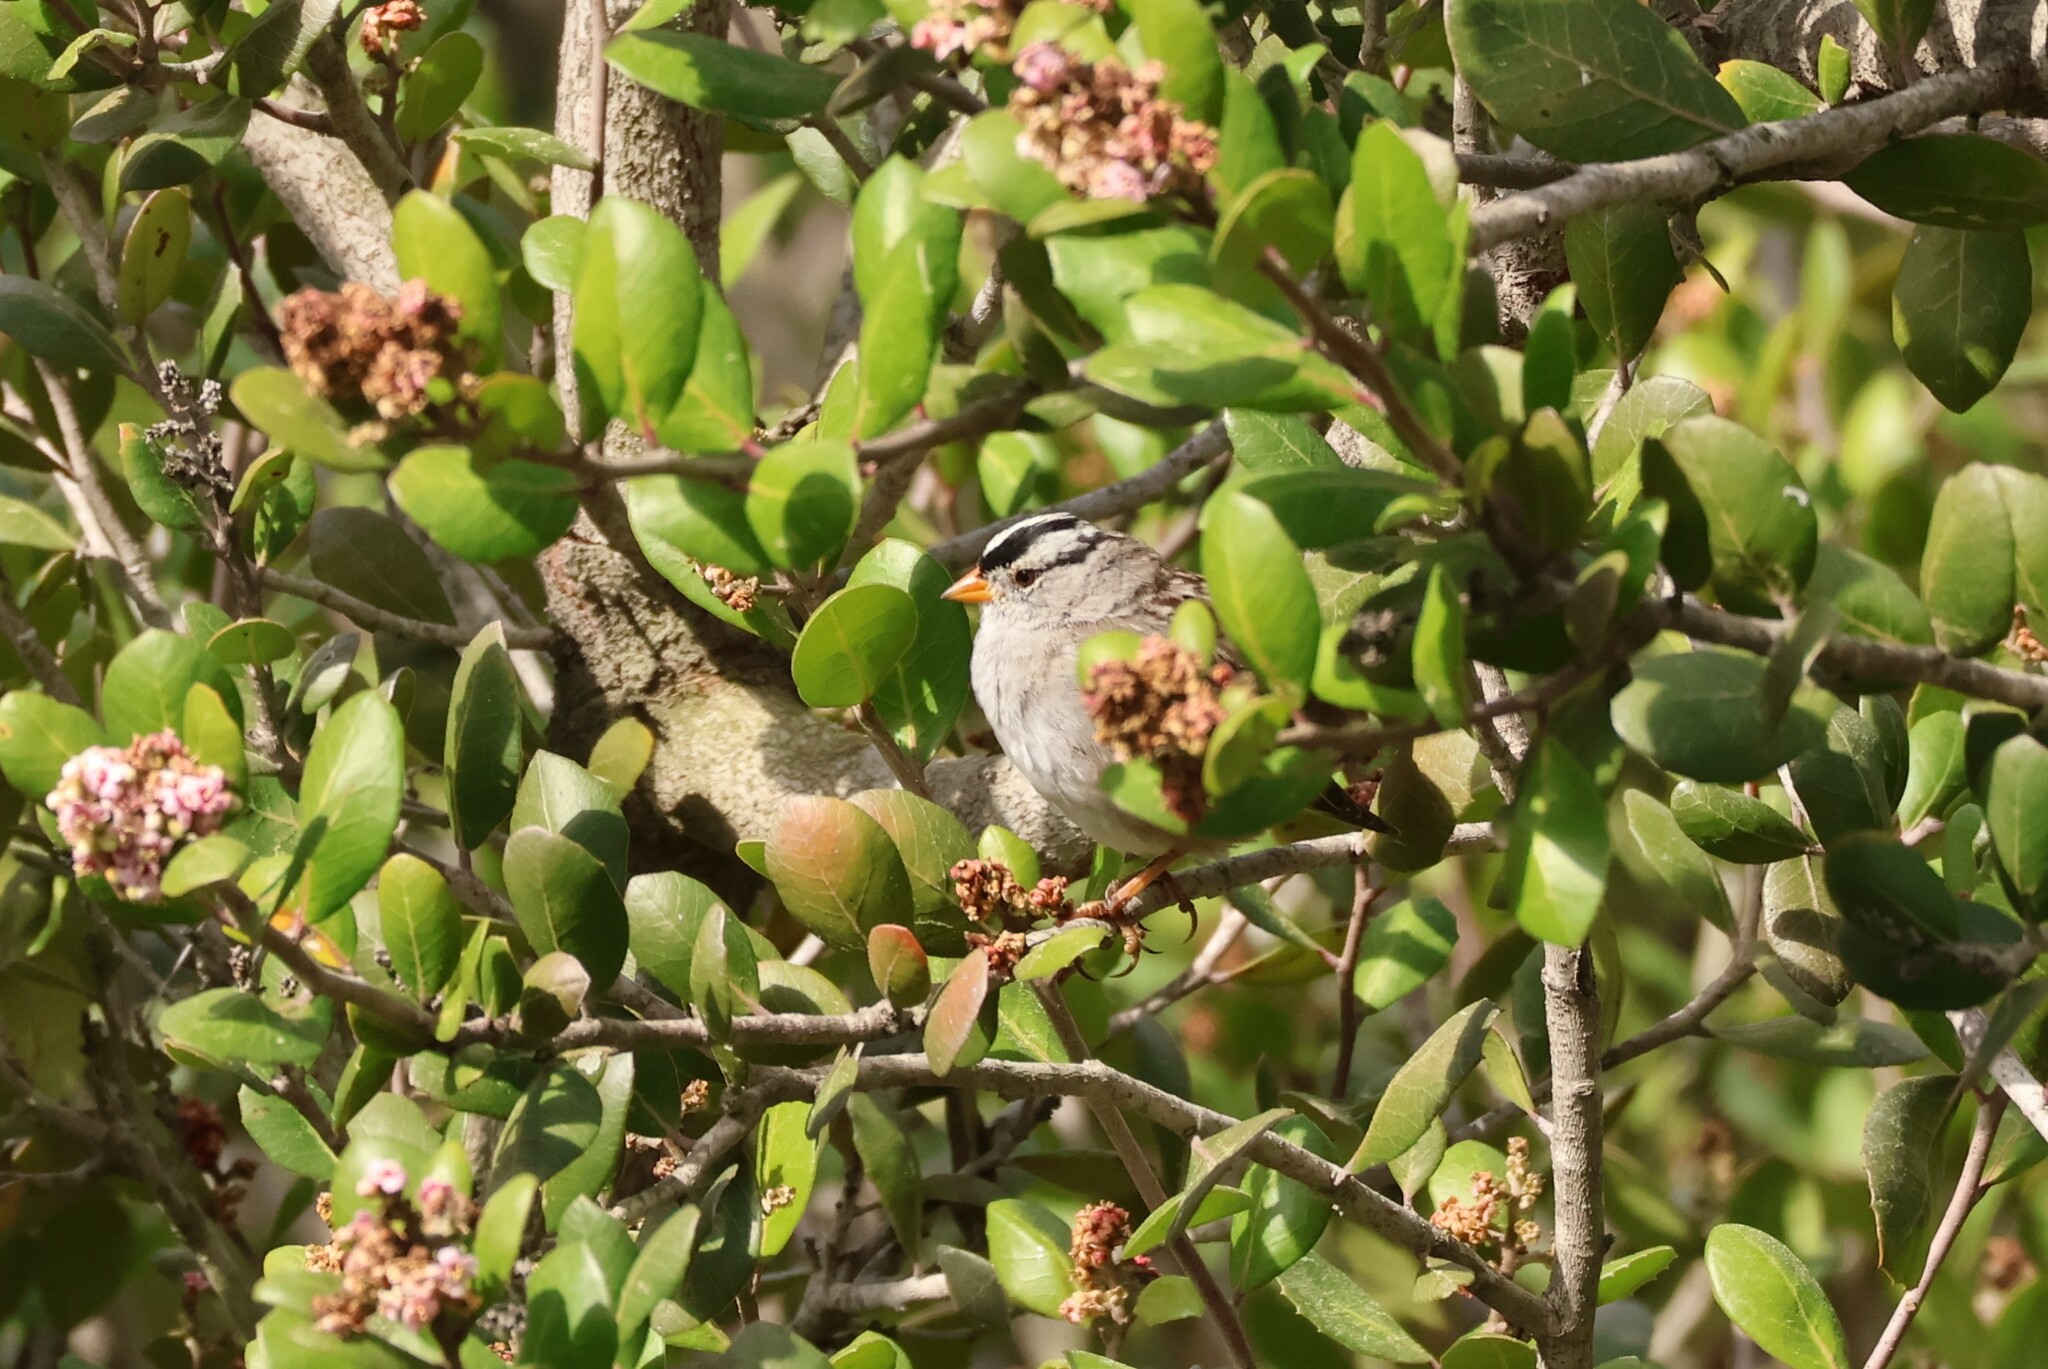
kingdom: Animalia
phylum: Chordata
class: Aves
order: Passeriformes
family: Passerellidae
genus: Zonotrichia
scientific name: Zonotrichia leucophrys
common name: White-crowned sparrow
